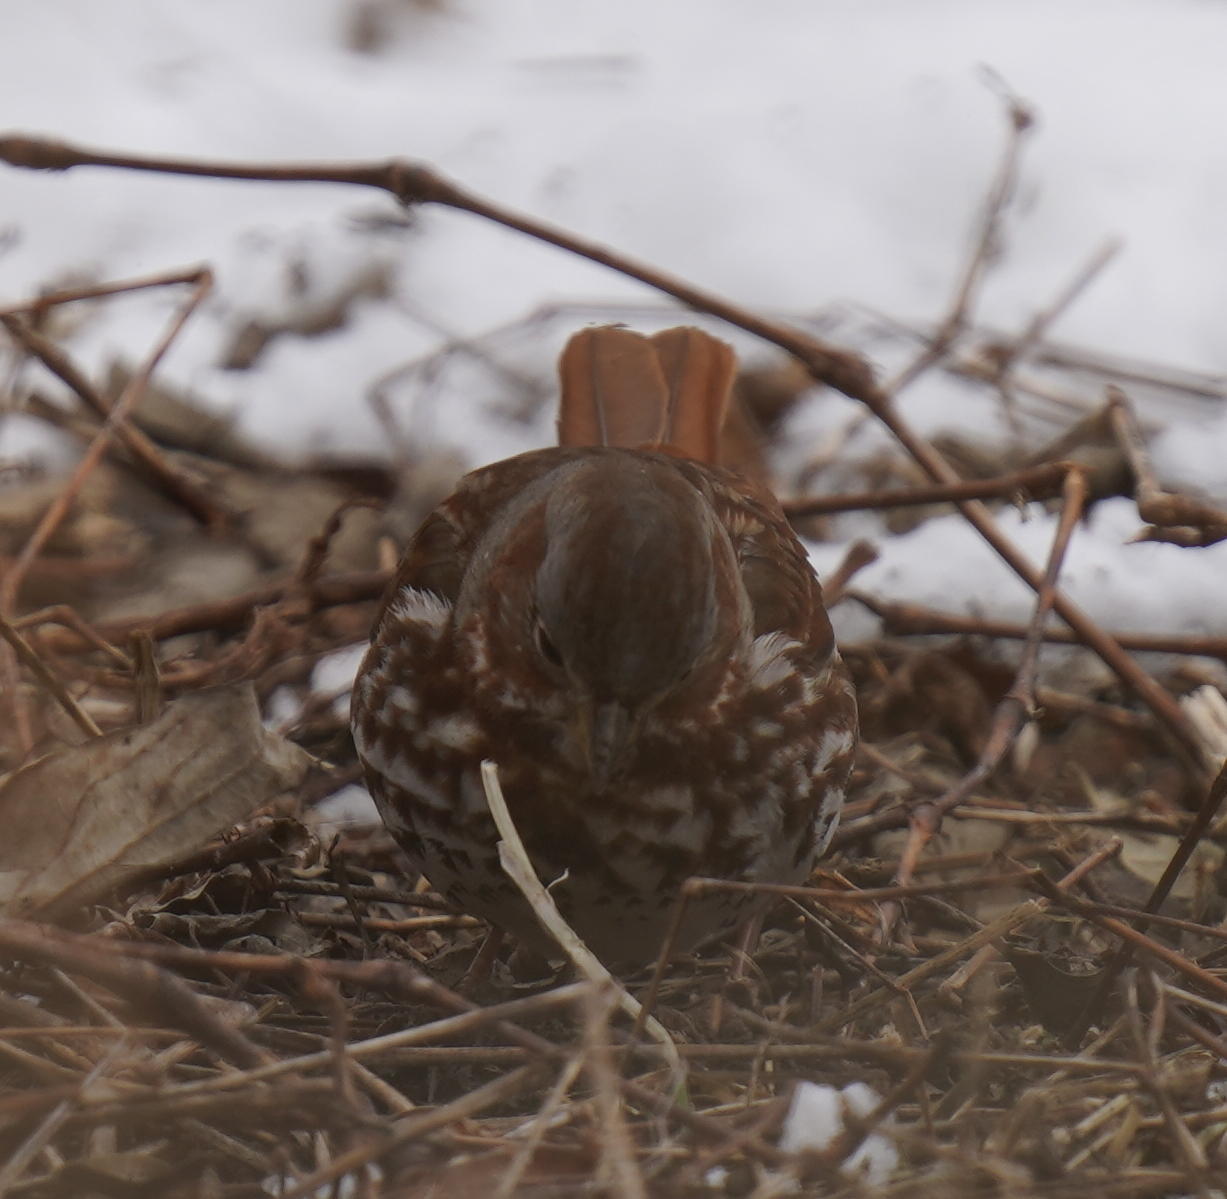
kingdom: Animalia
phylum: Chordata
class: Aves
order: Passeriformes
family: Passerellidae
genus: Passerella
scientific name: Passerella iliaca
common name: Fox sparrow
